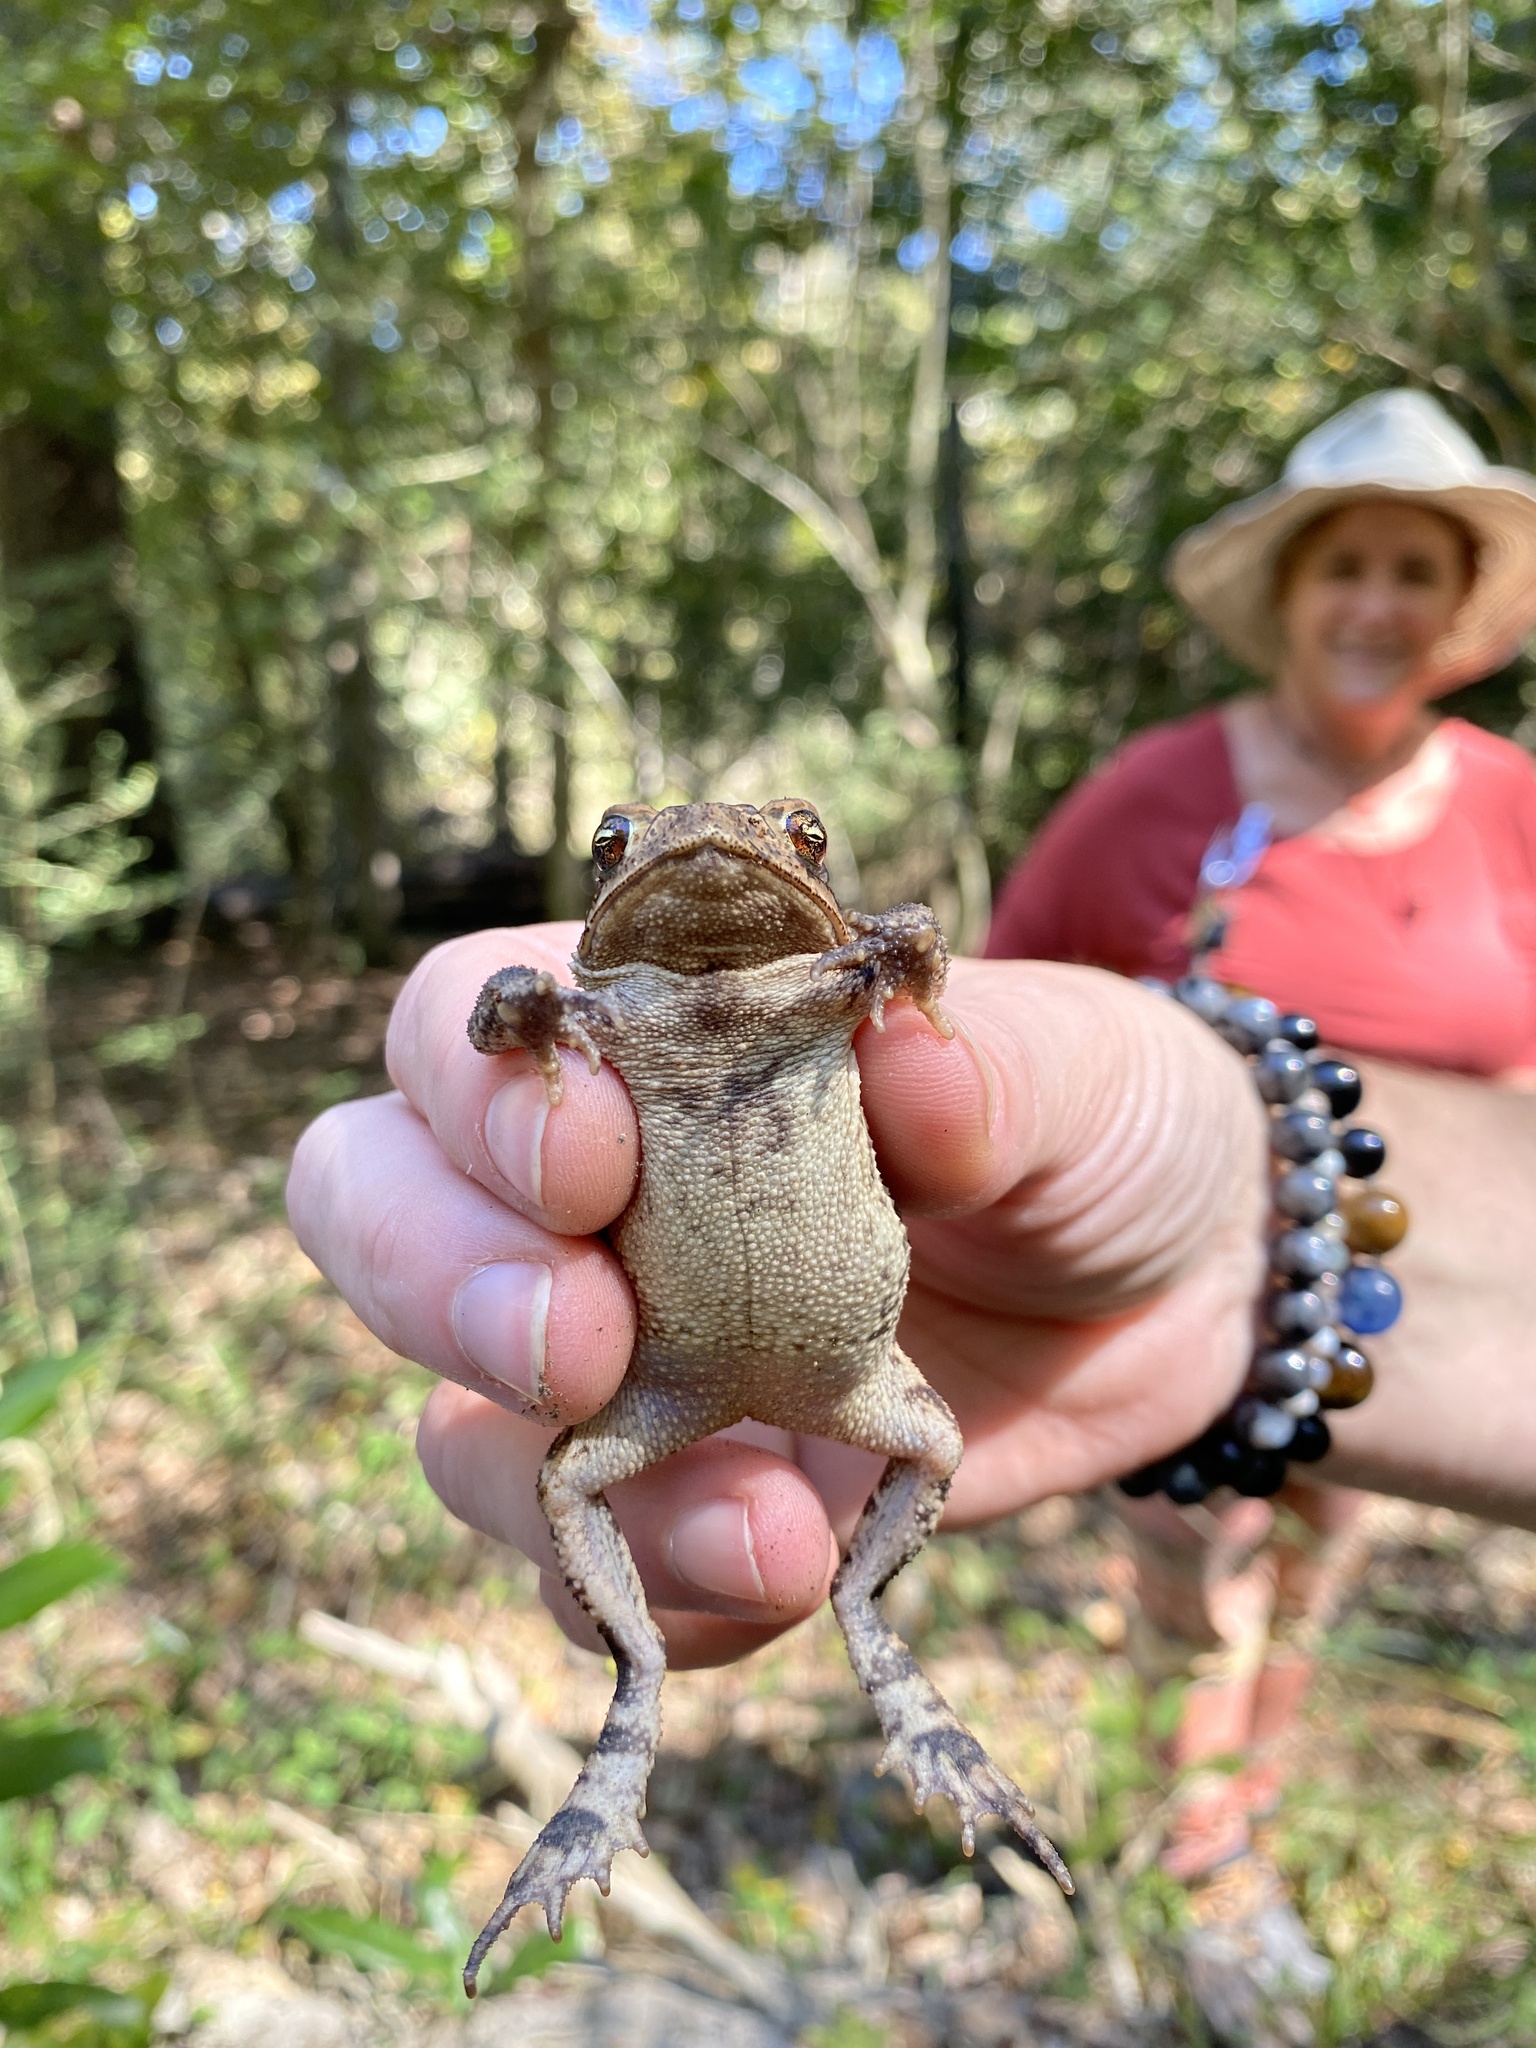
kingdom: Animalia
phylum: Chordata
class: Amphibia
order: Anura
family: Bufonidae
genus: Incilius
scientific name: Incilius nebulifer
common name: Gulf coast toad
